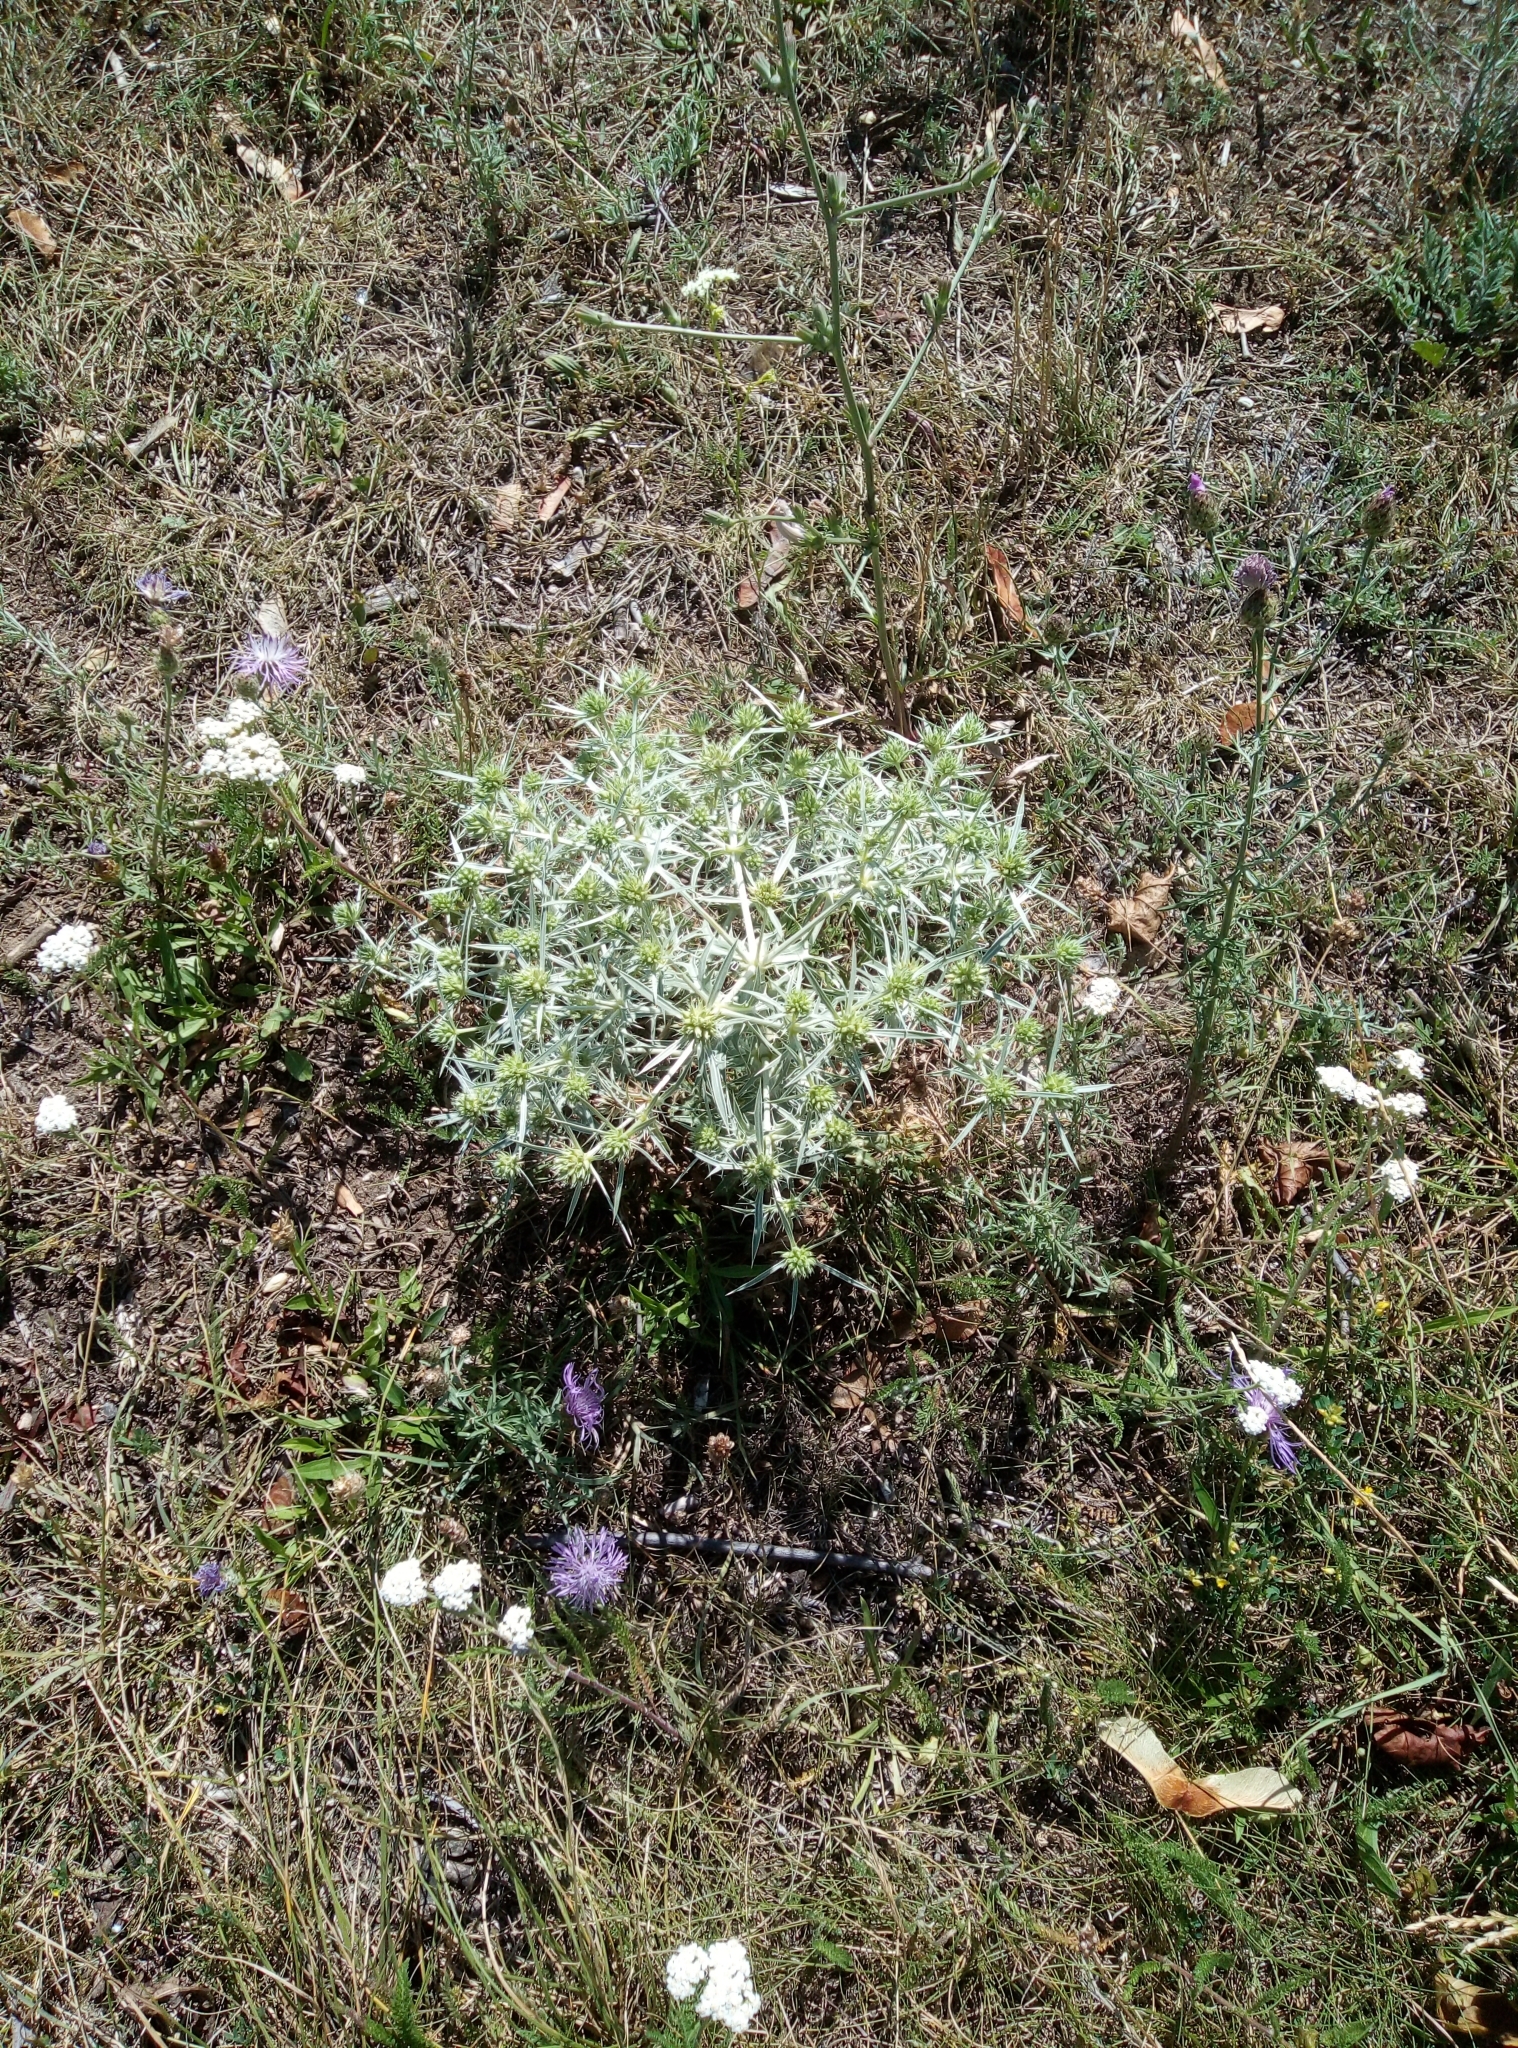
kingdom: Plantae
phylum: Tracheophyta
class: Magnoliopsida
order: Apiales
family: Apiaceae
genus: Eryngium
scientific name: Eryngium campestre
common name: Field eryngo
